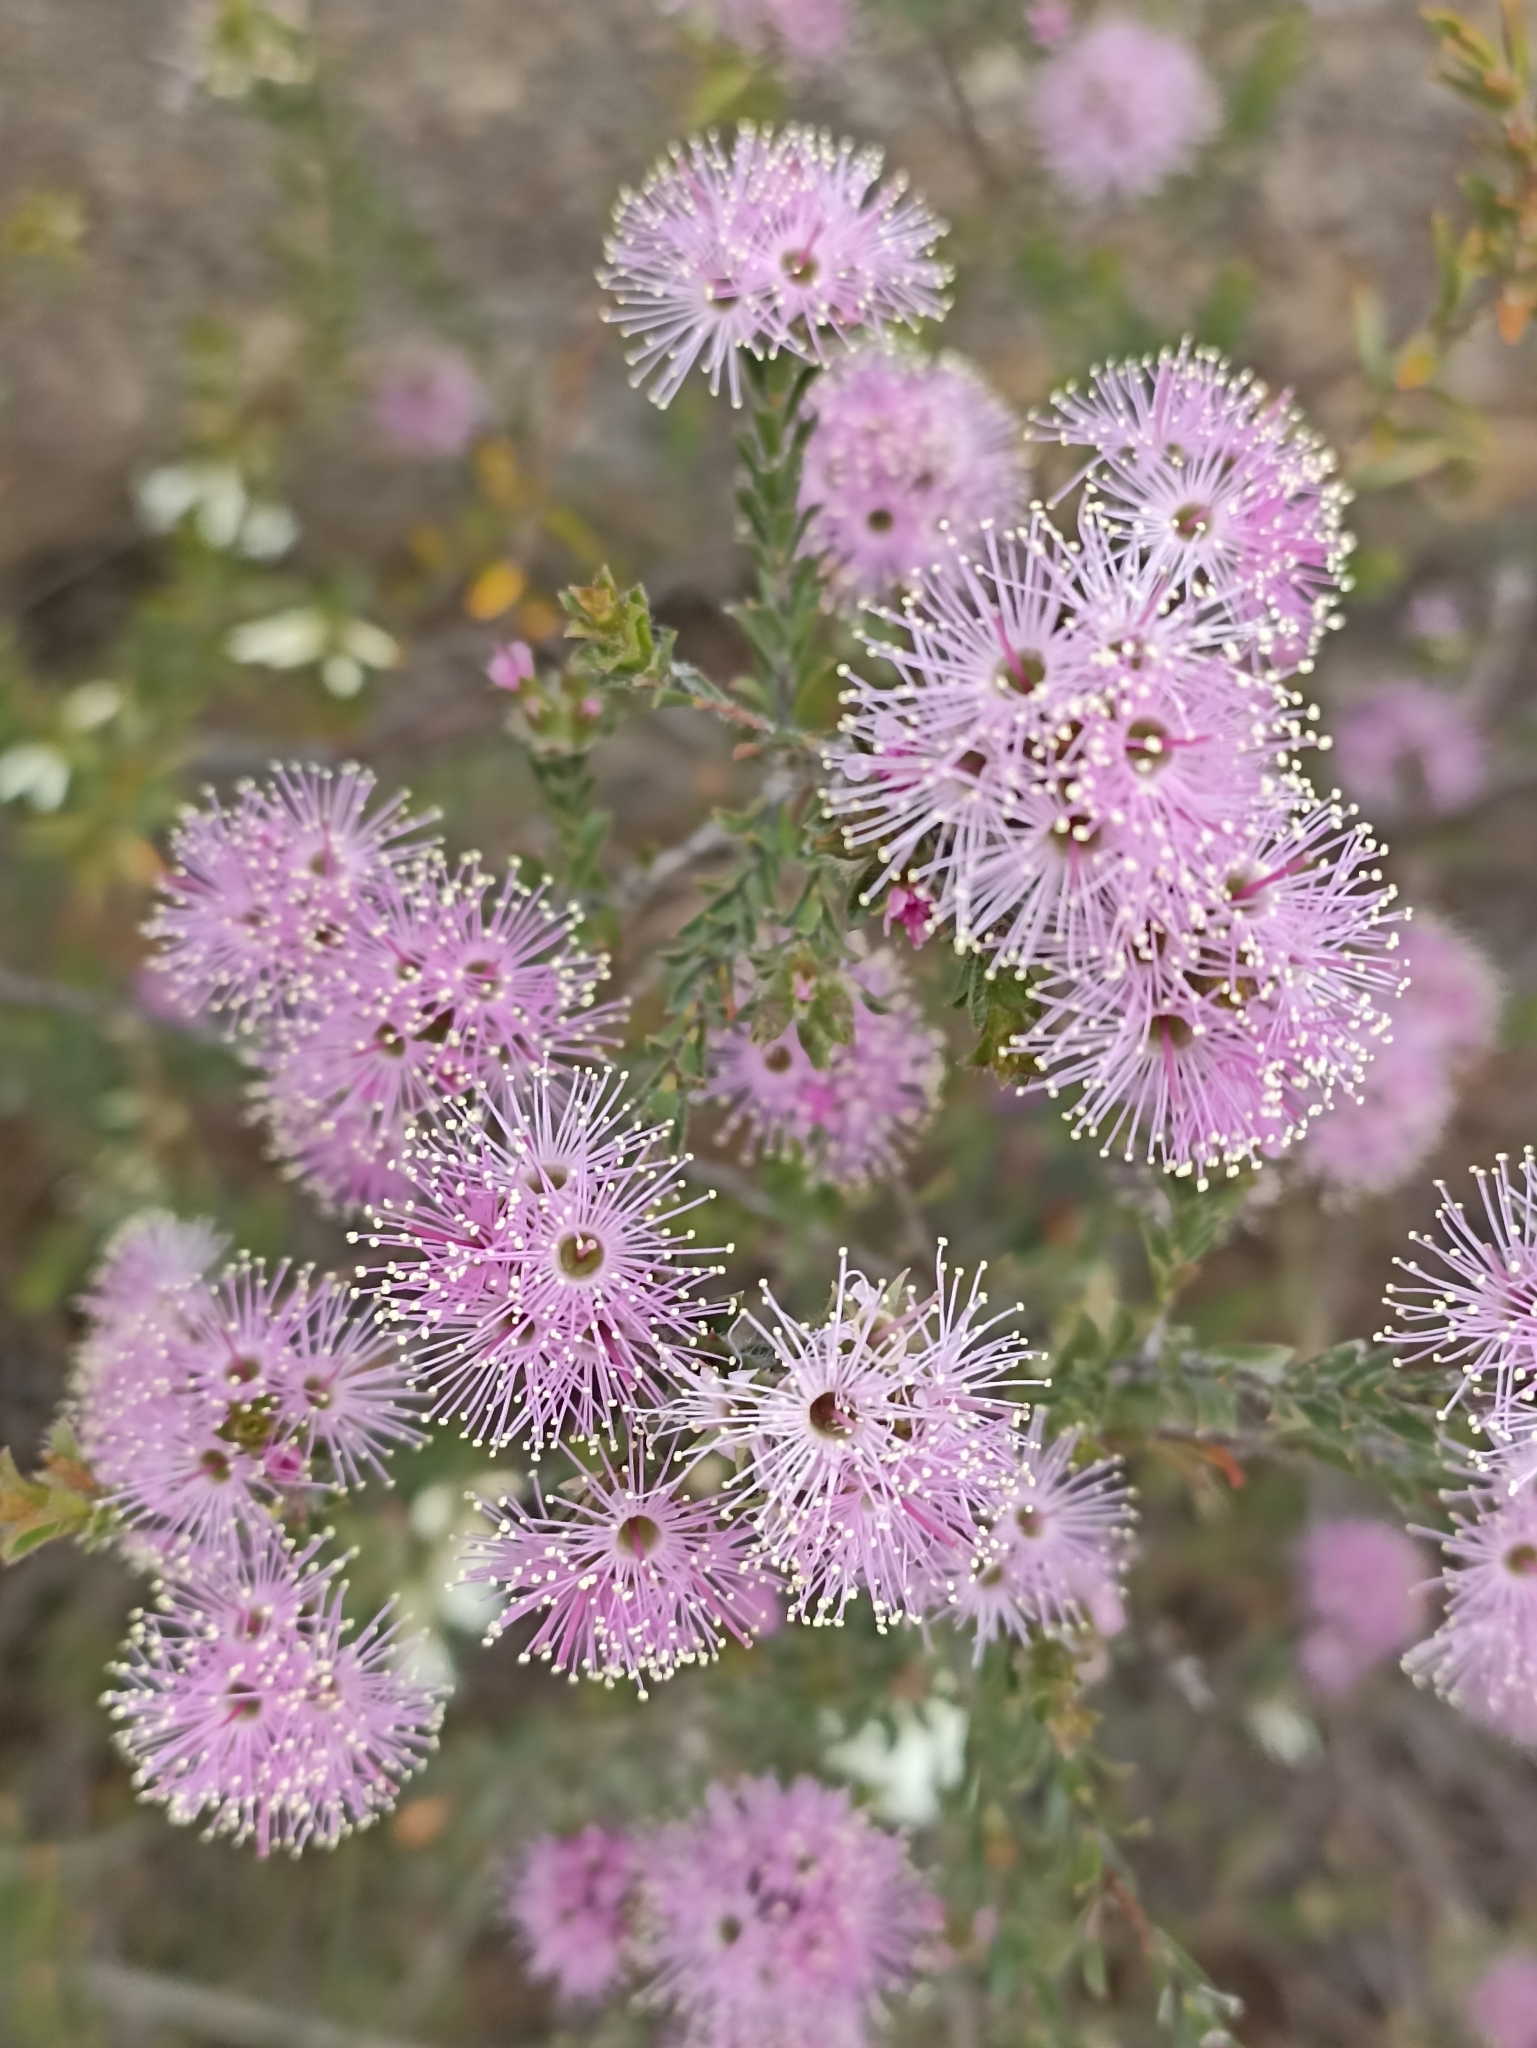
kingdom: Plantae
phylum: Tracheophyta
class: Magnoliopsida
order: Myrtales
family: Myrtaceae
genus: Kunzea
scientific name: Kunzea capitata
